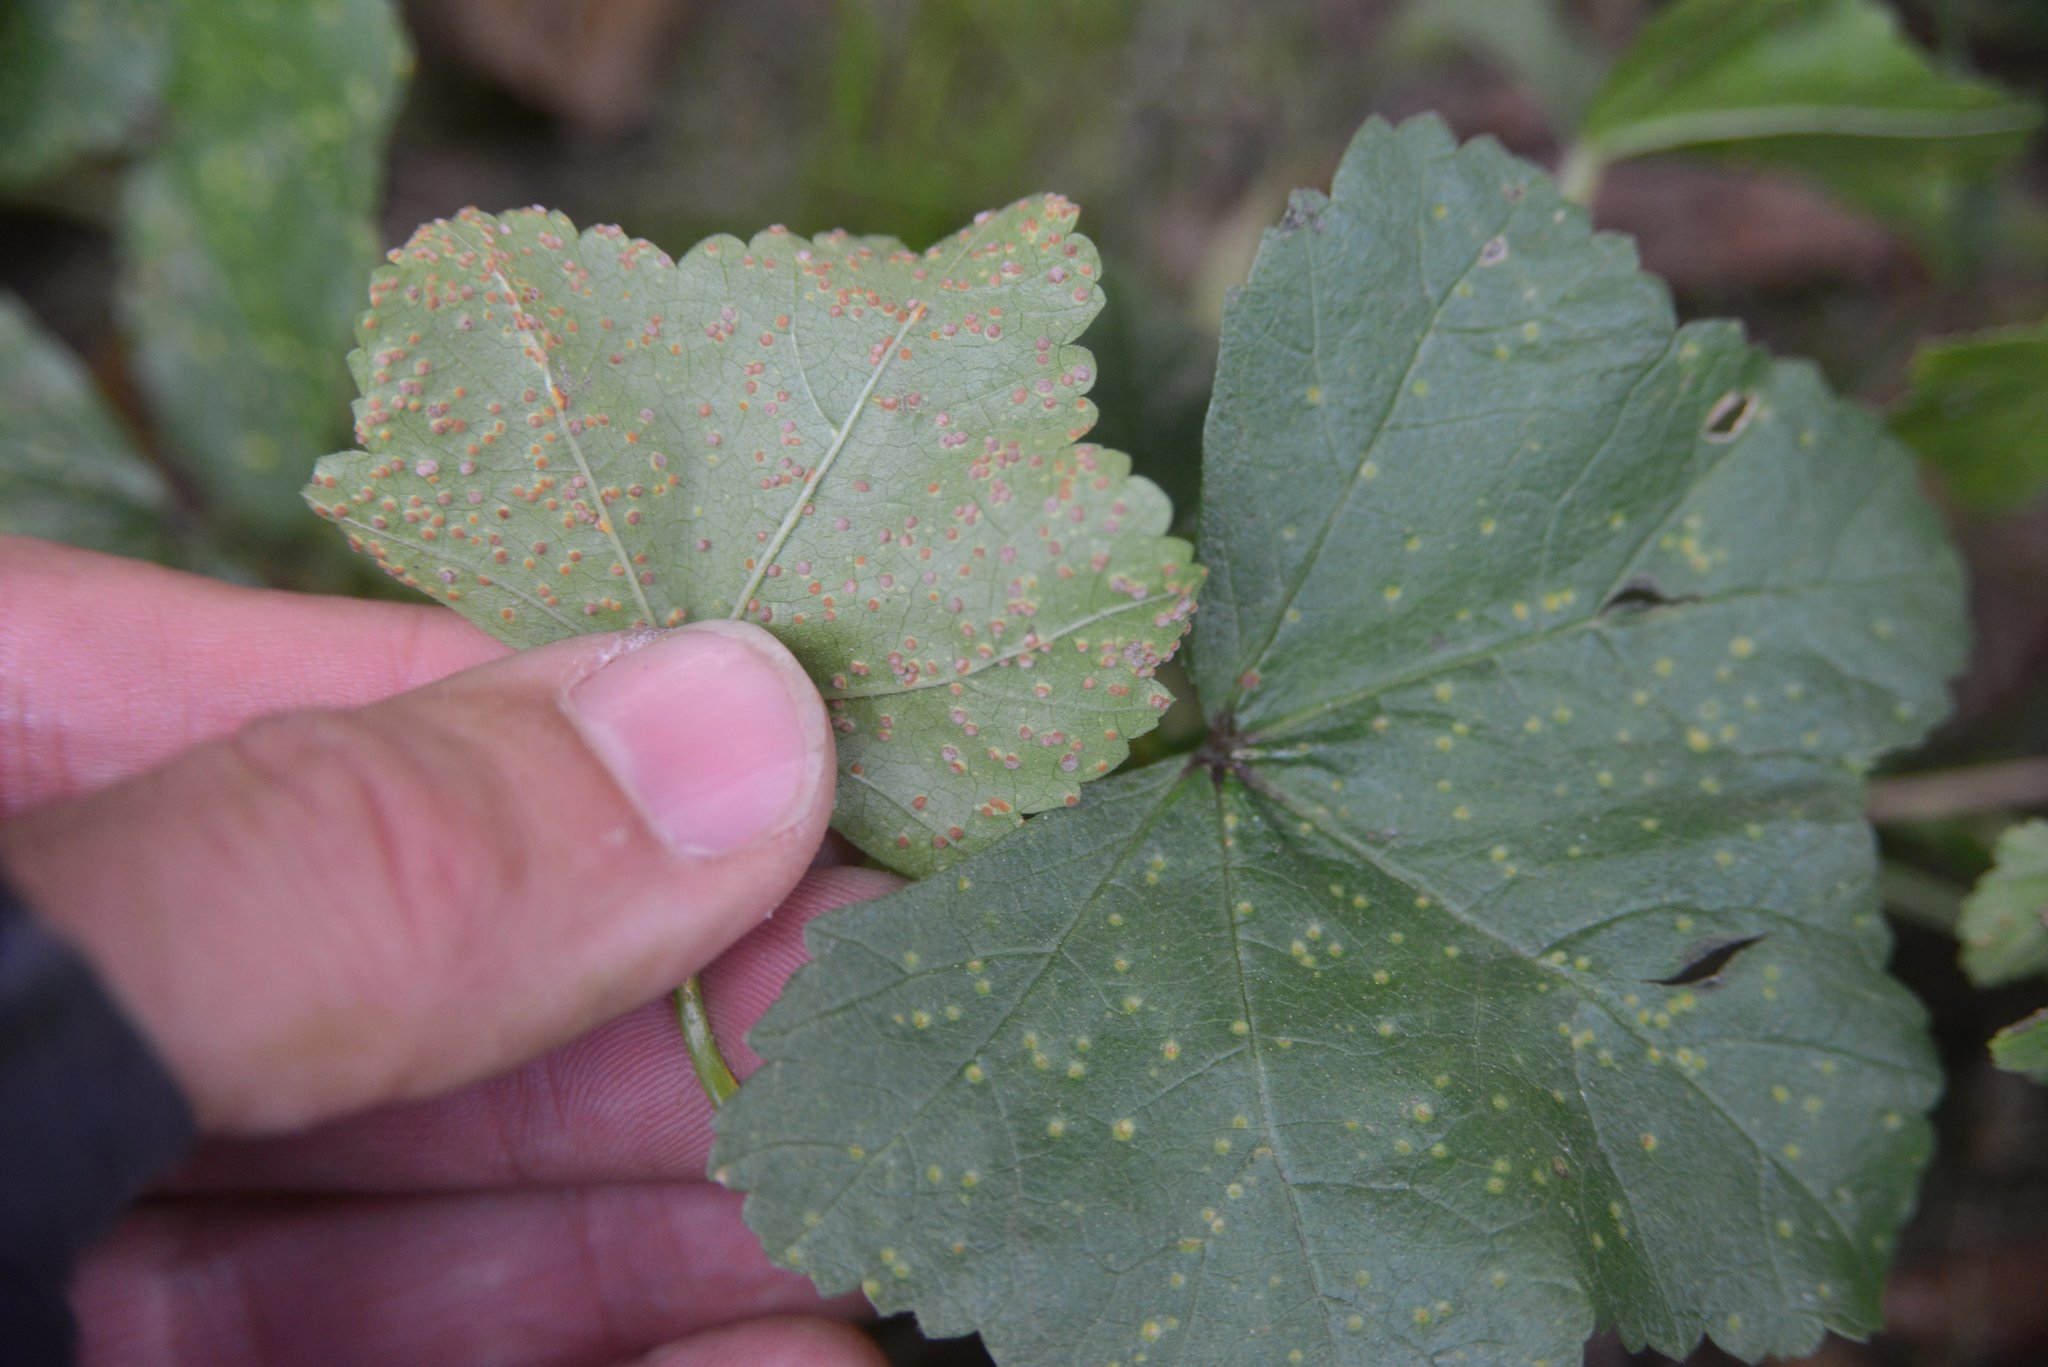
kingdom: Fungi
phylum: Basidiomycota
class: Pucciniomycetes
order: Pucciniales
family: Pucciniaceae
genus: Puccinia
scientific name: Puccinia malvacearum
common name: Hollyhock rust
